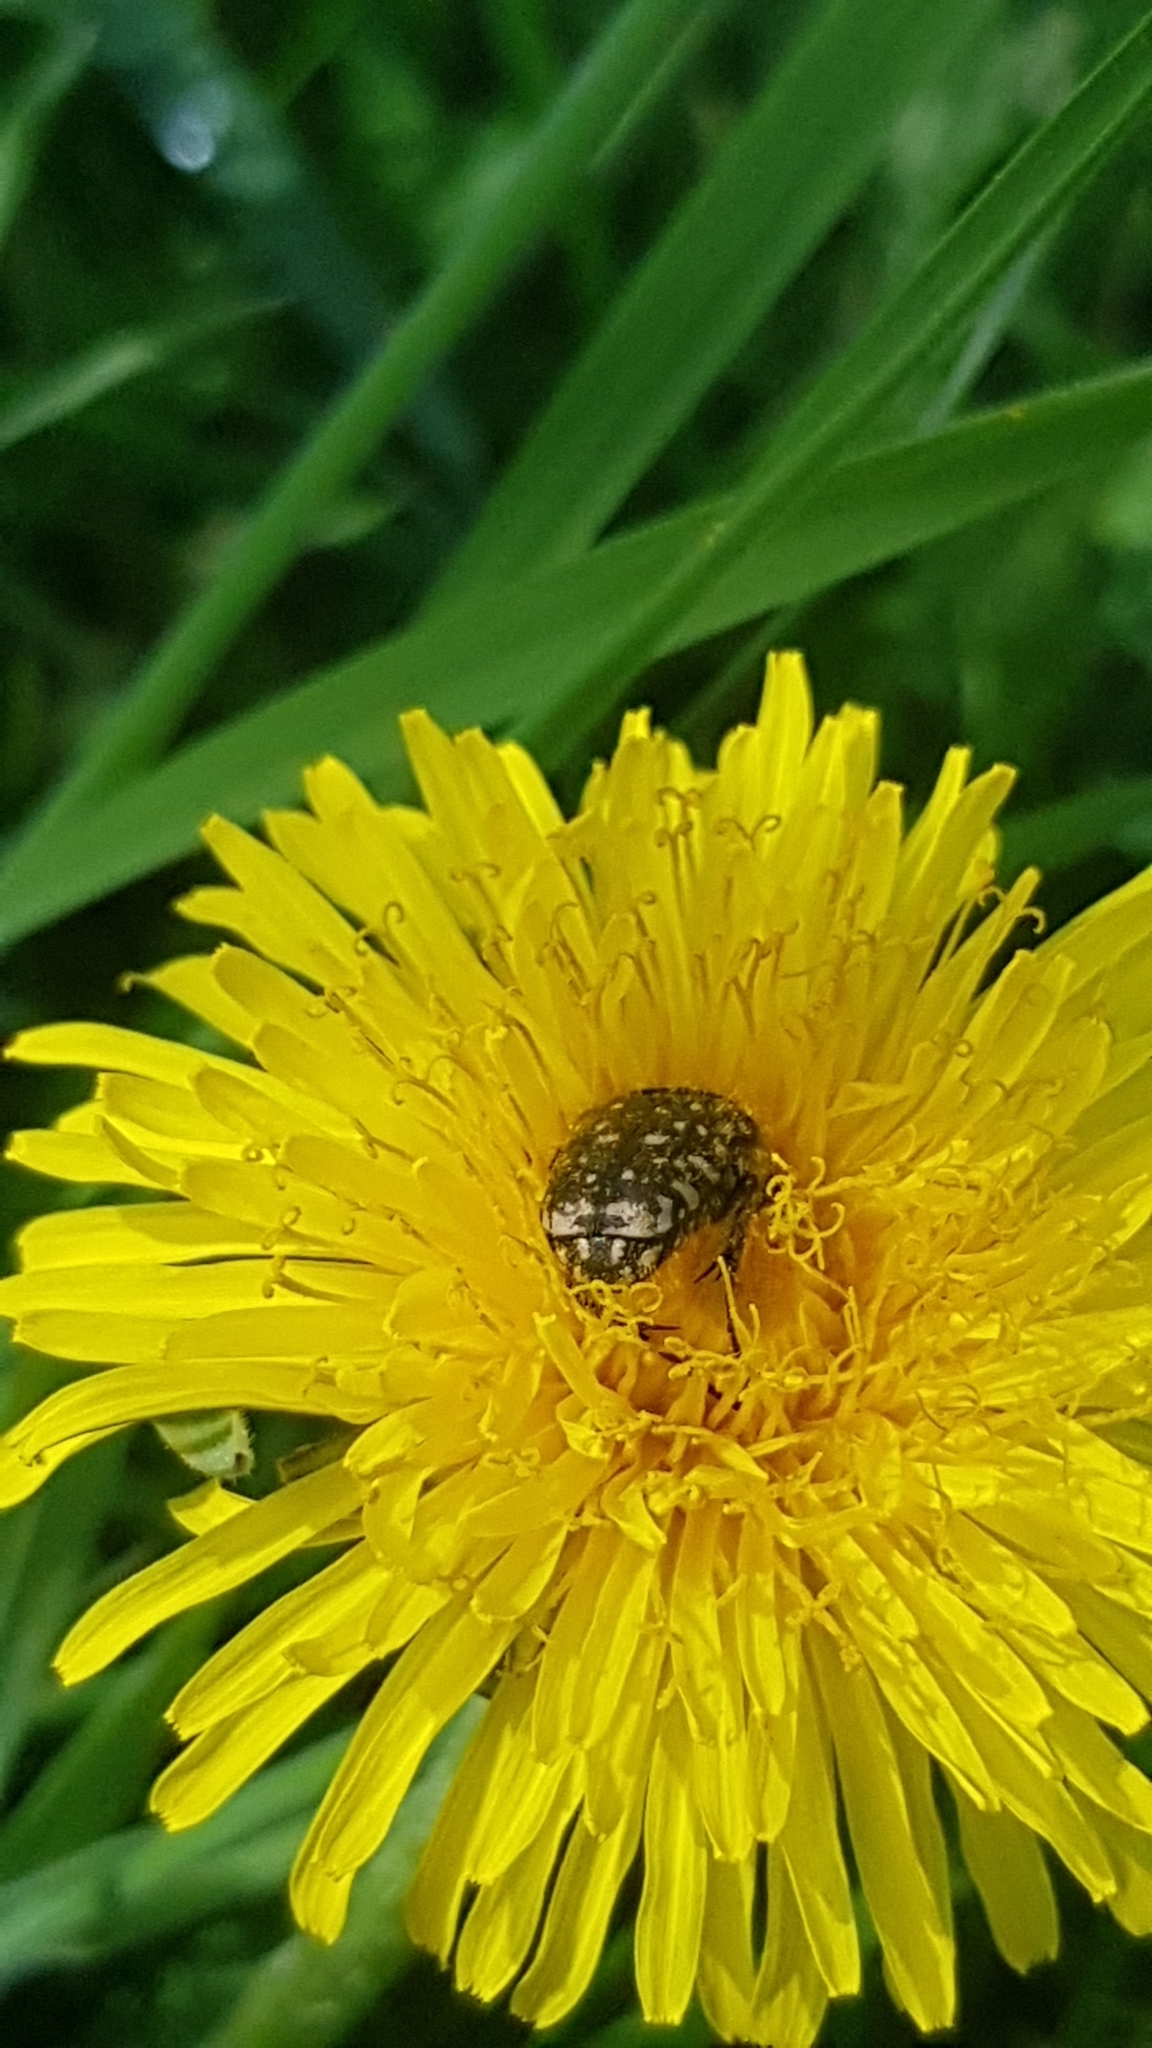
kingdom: Animalia
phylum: Arthropoda
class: Insecta
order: Coleoptera
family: Scarabaeidae
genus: Oxythyrea
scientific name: Oxythyrea funesta
